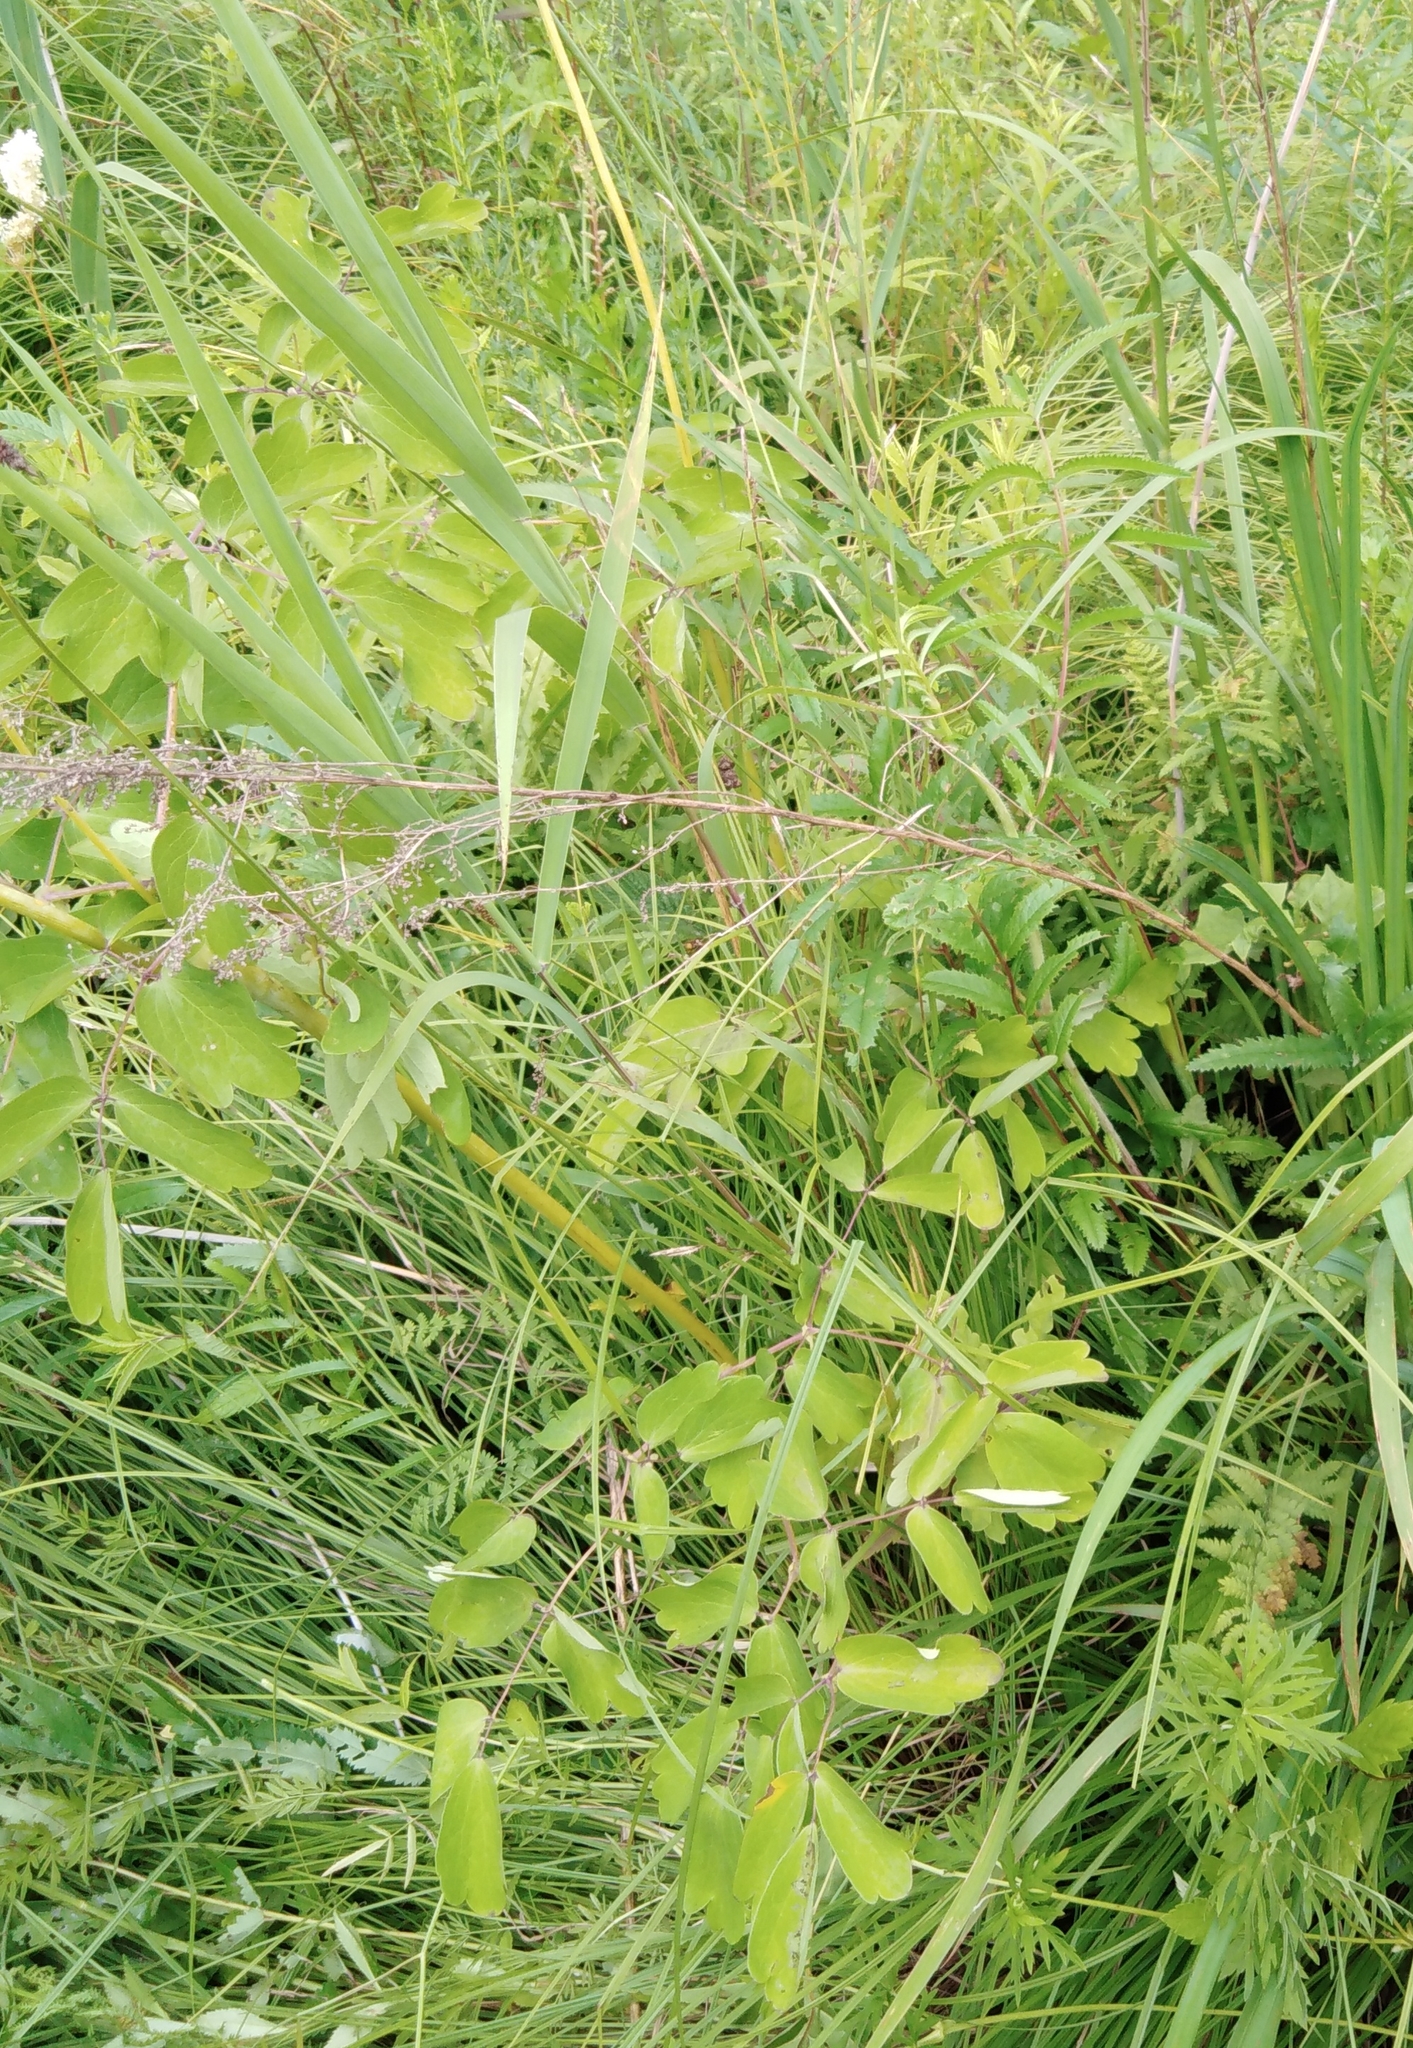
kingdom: Plantae
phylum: Tracheophyta
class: Magnoliopsida
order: Ranunculales
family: Ranunculaceae
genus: Thalictrum
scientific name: Thalictrum aquilegiifolium
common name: French meadow-rue
